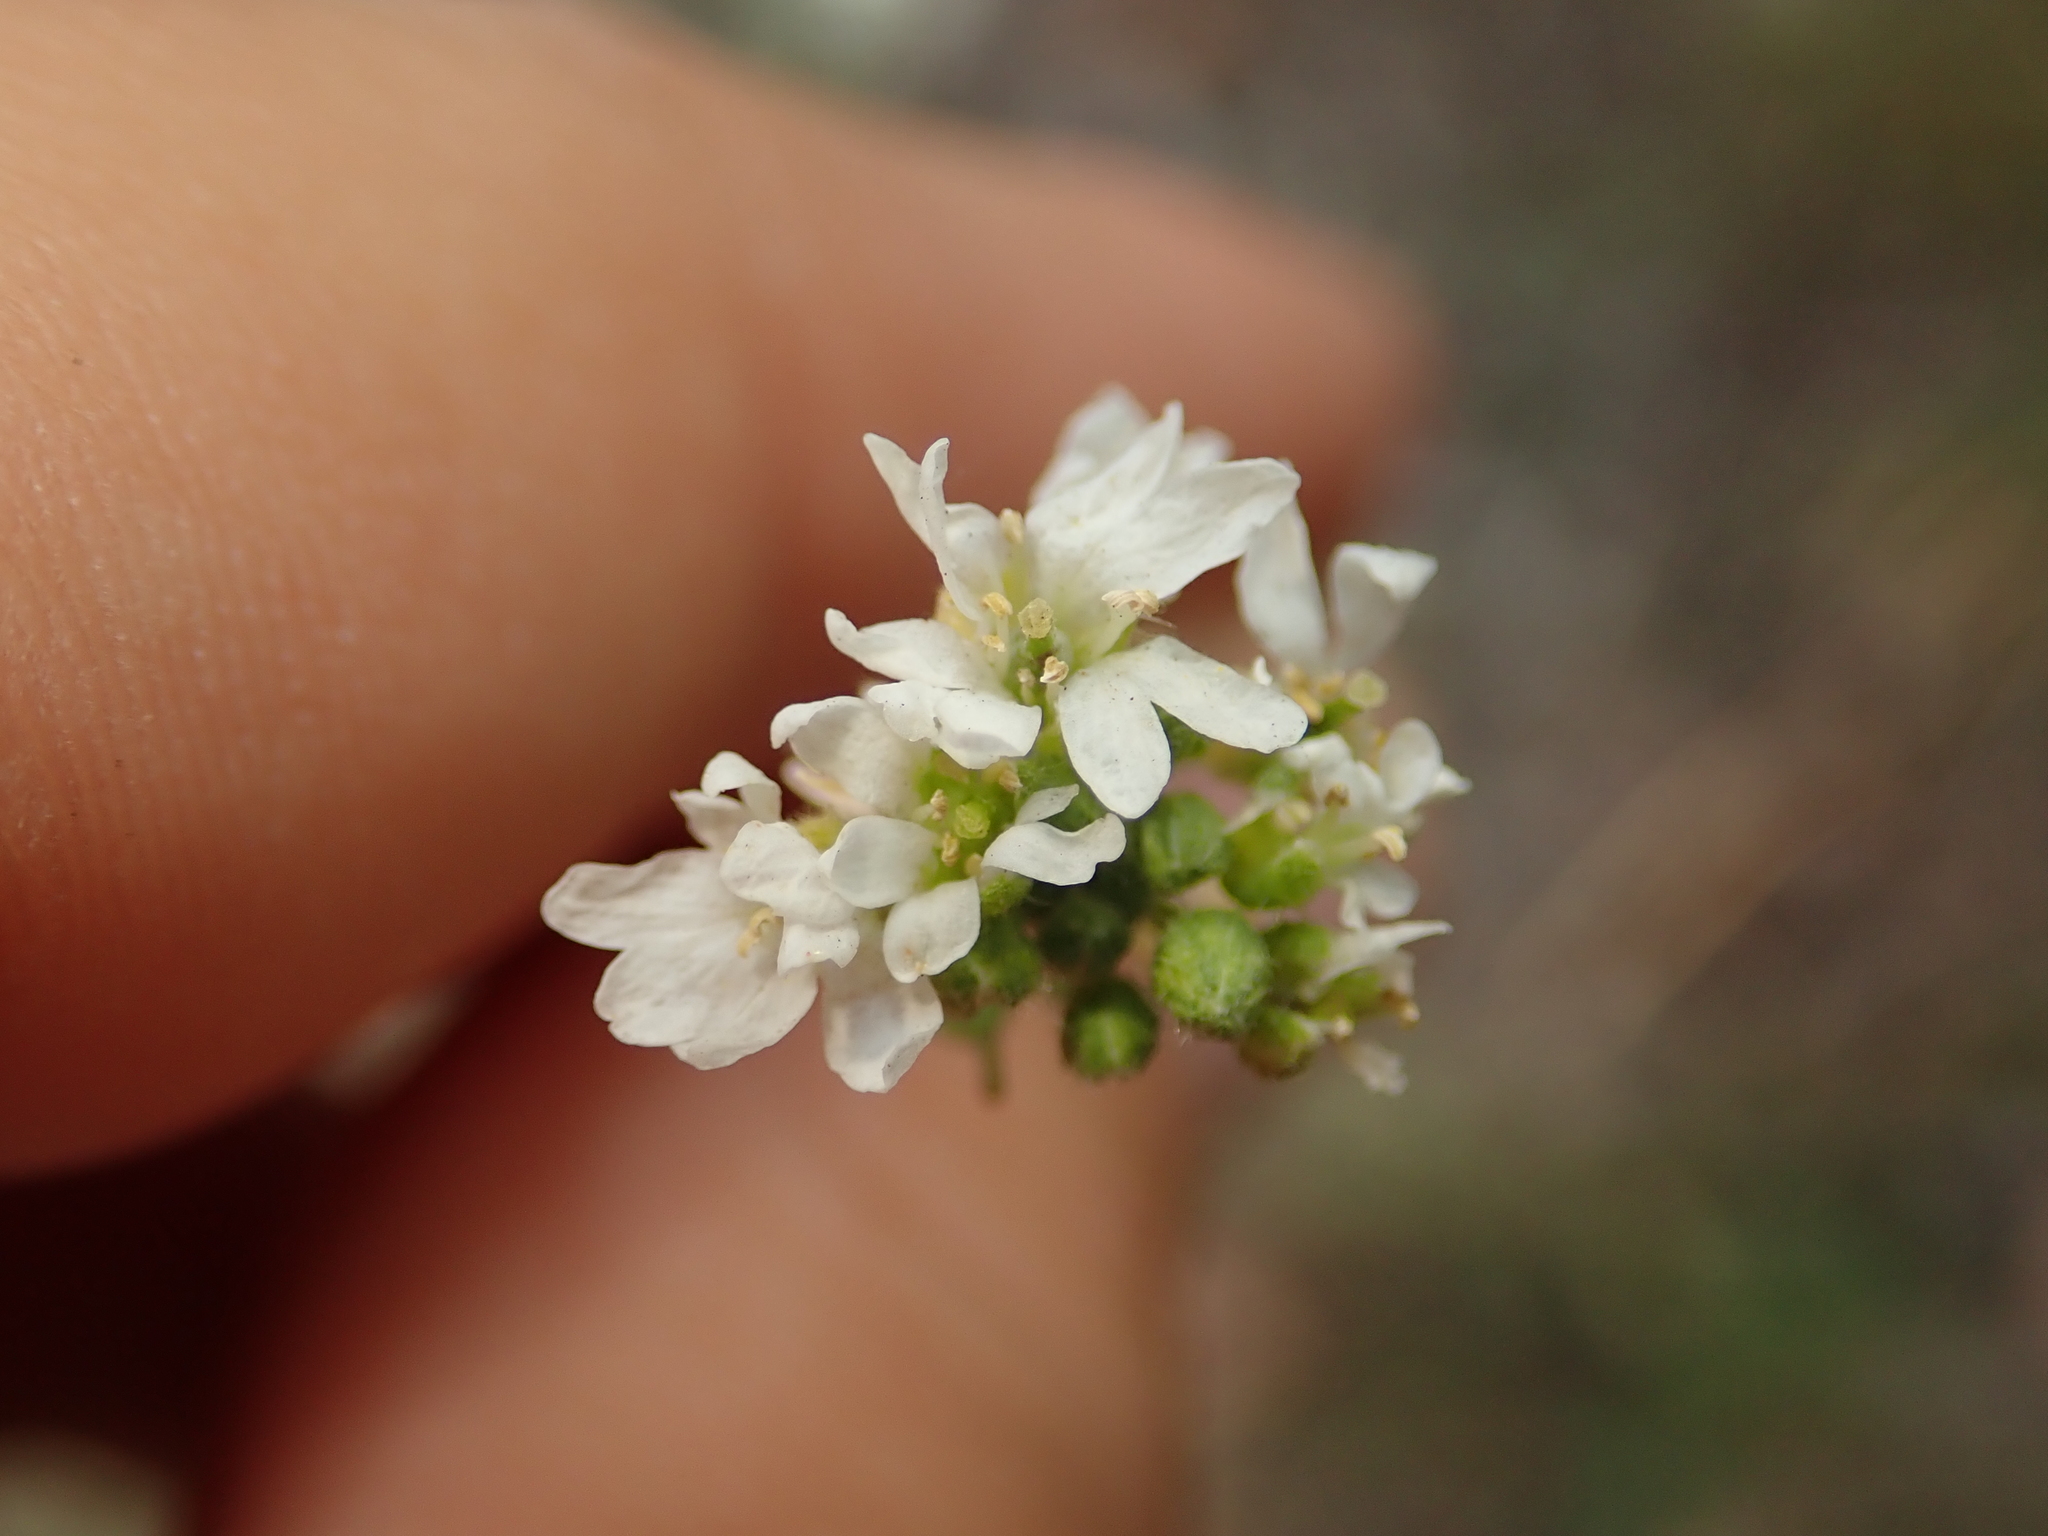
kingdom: Plantae
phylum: Tracheophyta
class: Magnoliopsida
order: Brassicales
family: Brassicaceae
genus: Berteroa
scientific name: Berteroa incana
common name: Hoary alison
